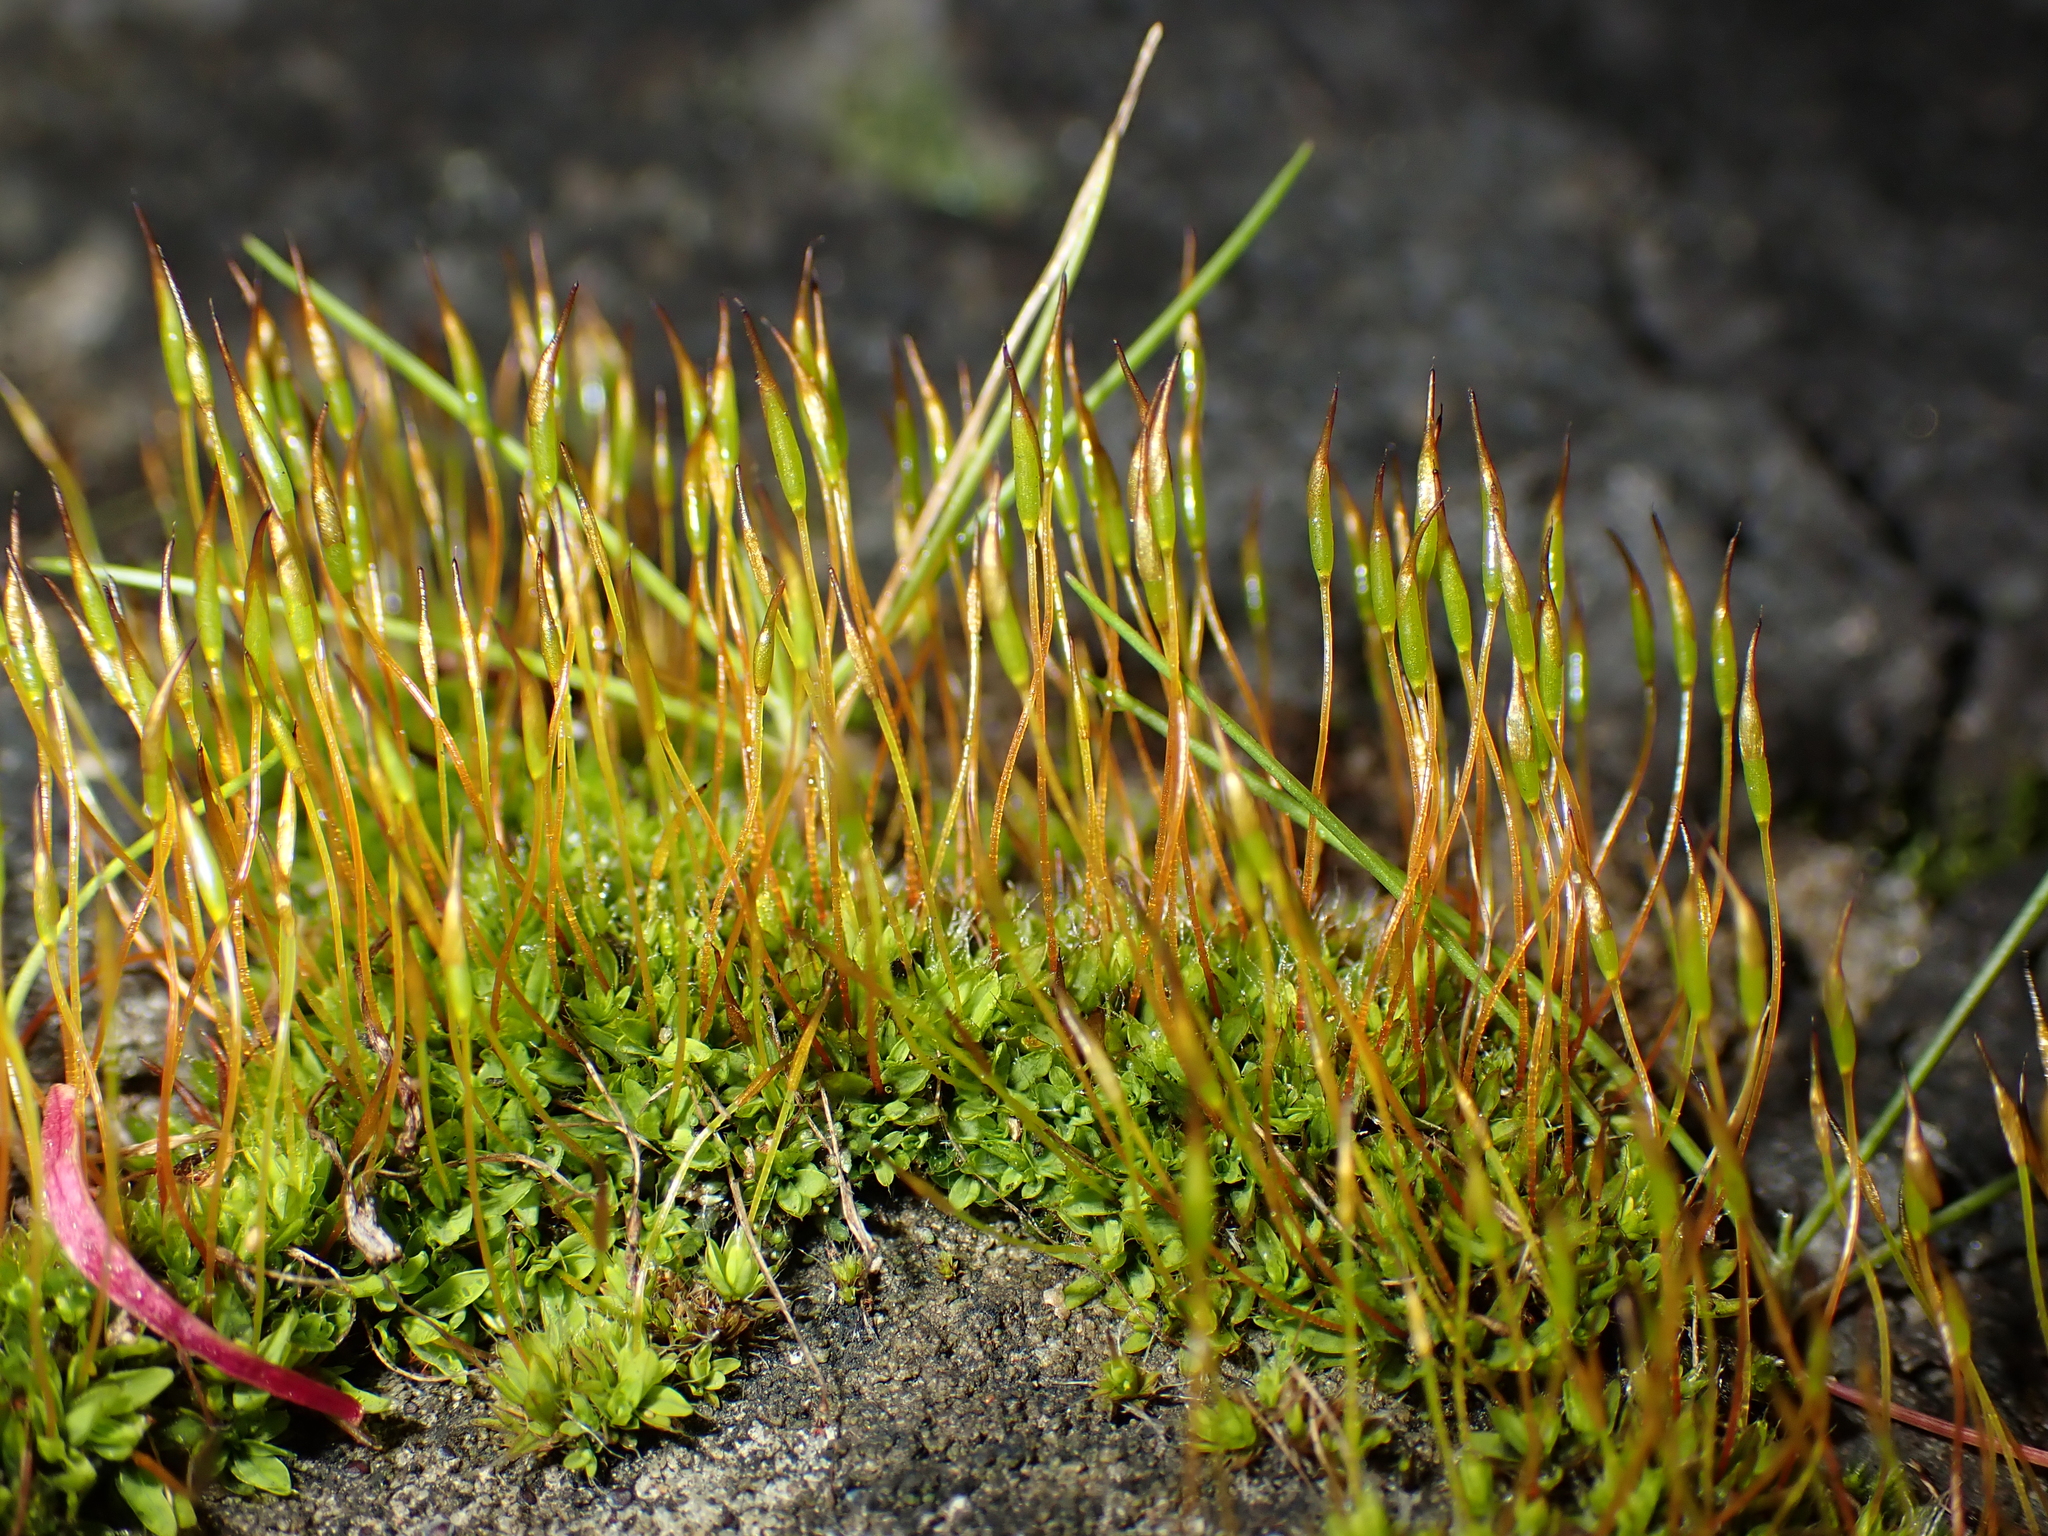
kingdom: Plantae
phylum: Bryophyta
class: Bryopsida
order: Pottiales
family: Pottiaceae
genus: Tortula
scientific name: Tortula muralis
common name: Wall screw-moss
